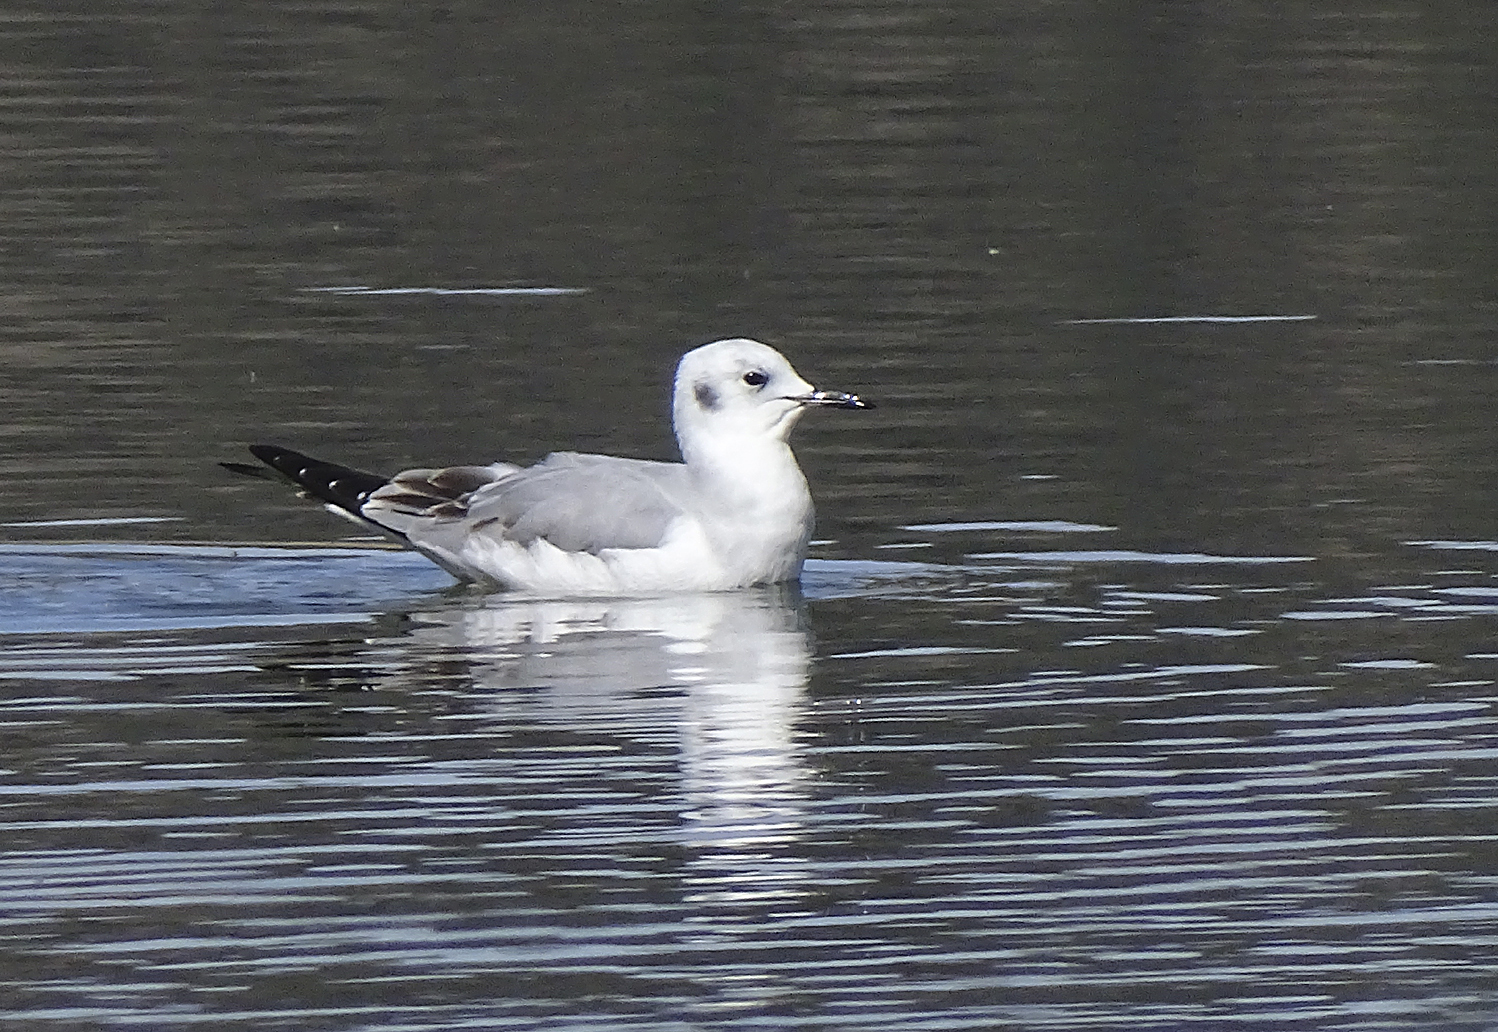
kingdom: Animalia
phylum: Chordata
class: Aves
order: Charadriiformes
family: Laridae
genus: Chroicocephalus
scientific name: Chroicocephalus philadelphia
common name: Bonaparte's gull
